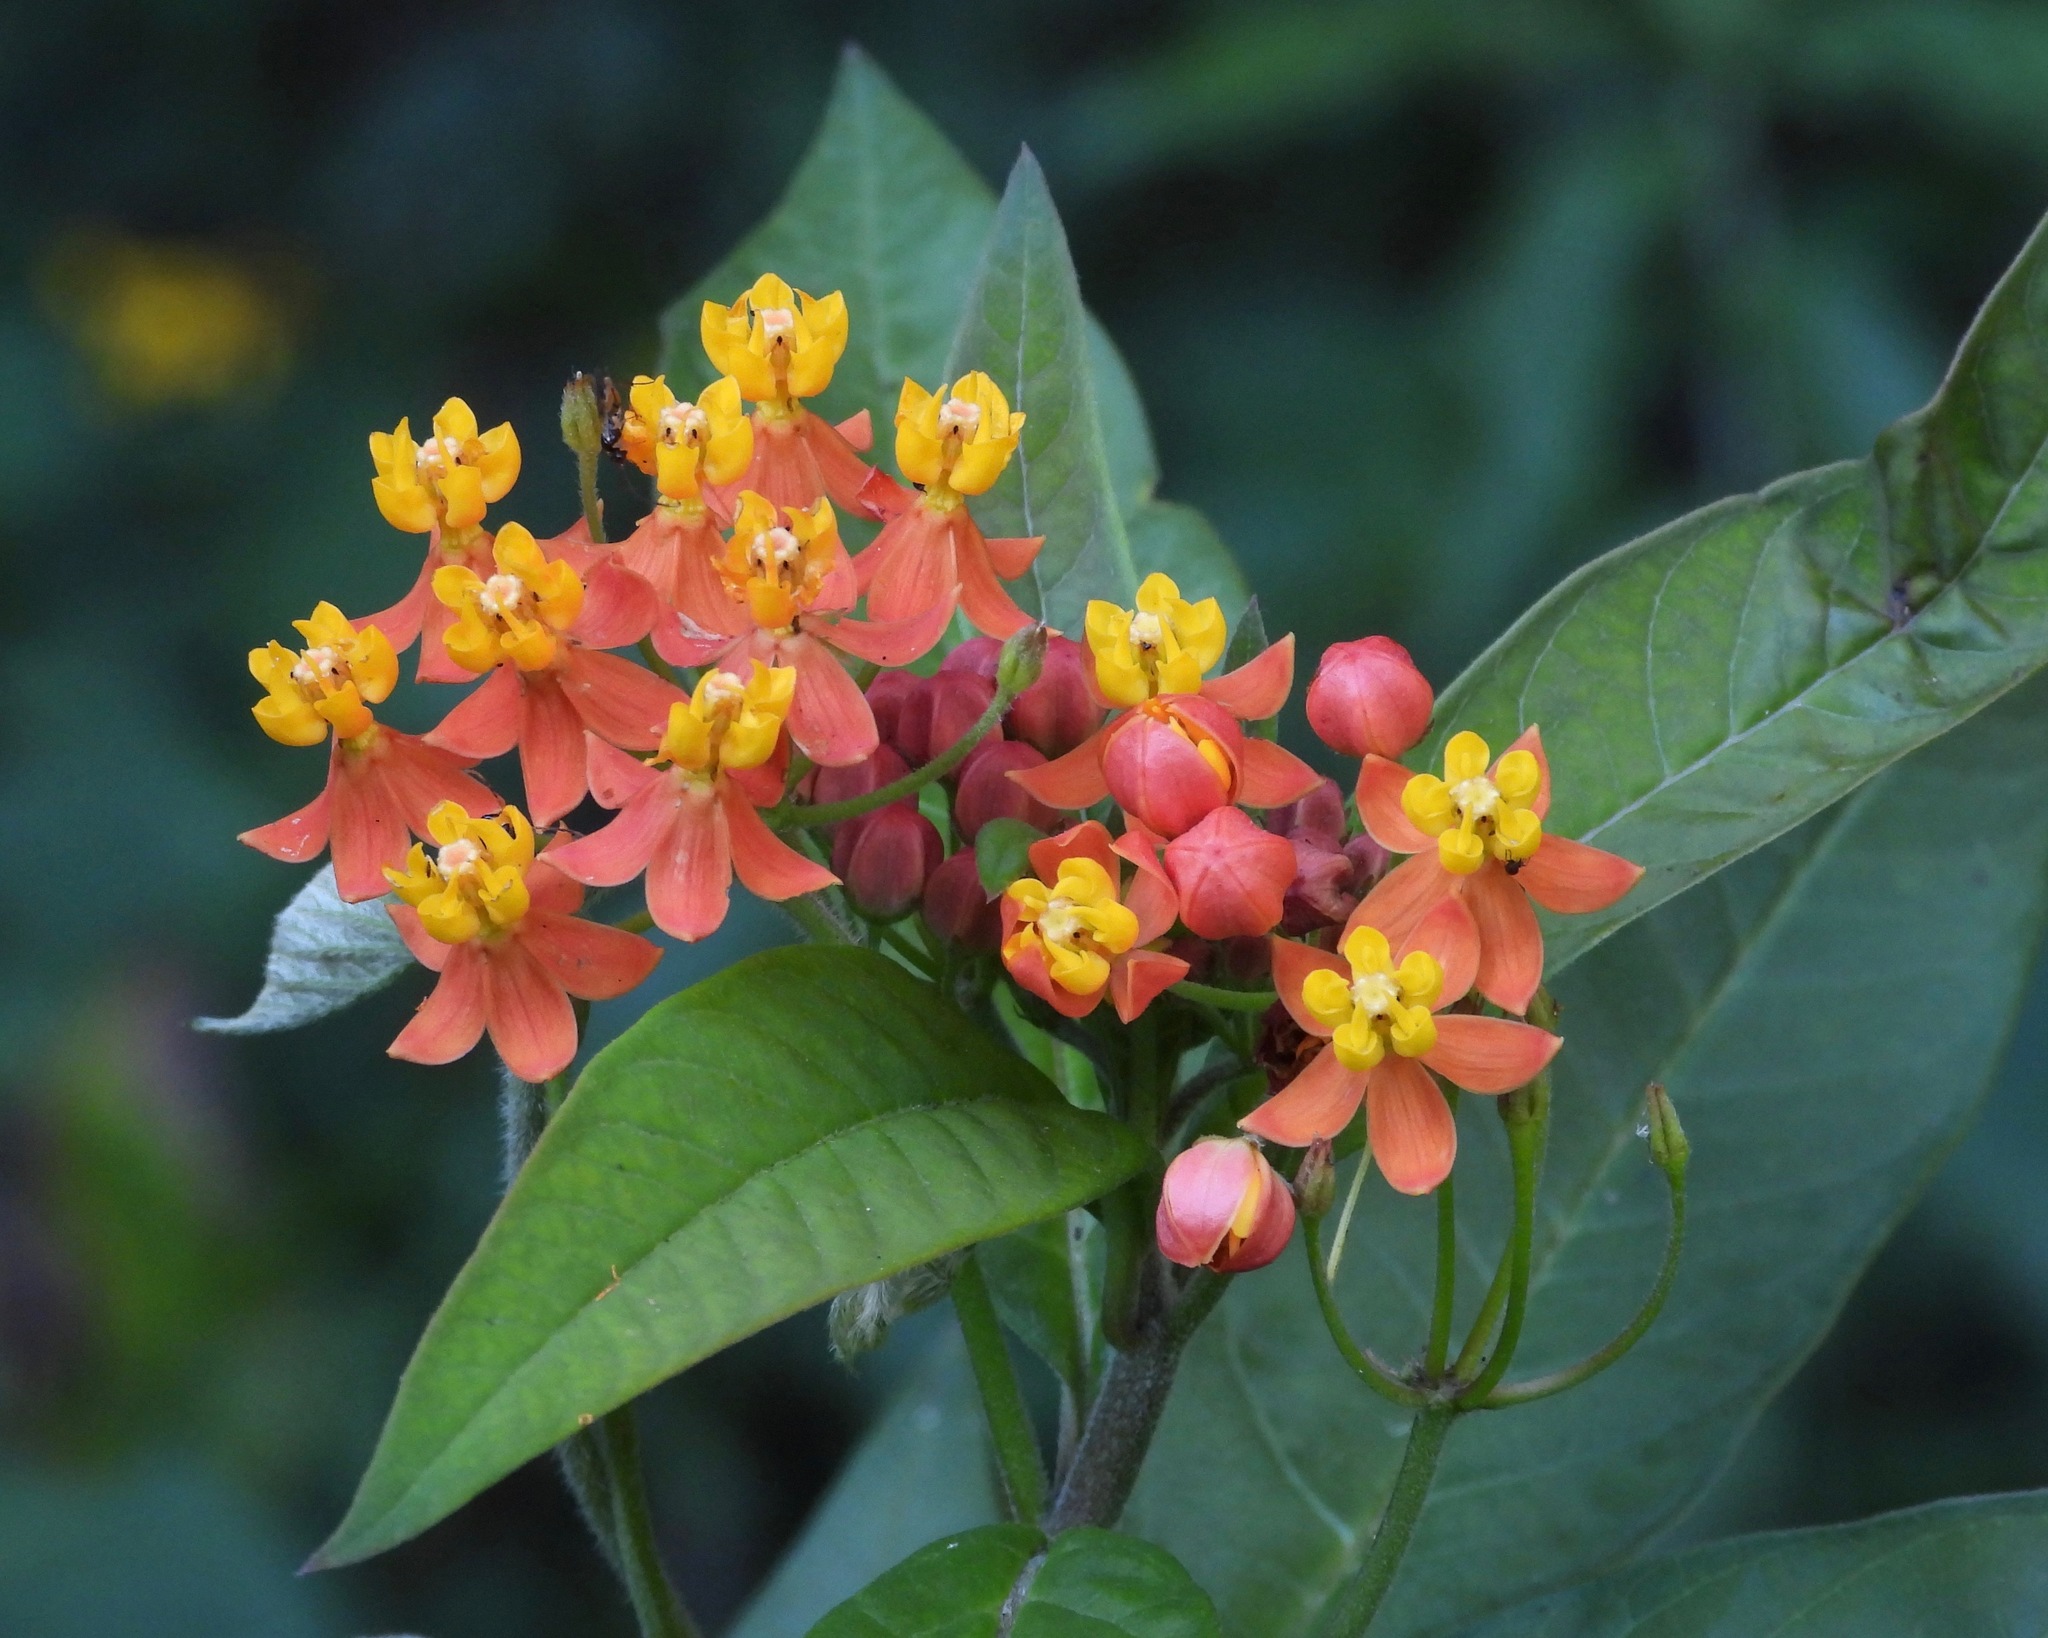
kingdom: Plantae
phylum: Tracheophyta
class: Magnoliopsida
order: Gentianales
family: Apocynaceae
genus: Asclepias
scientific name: Asclepias curassavica
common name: Bloodflower
